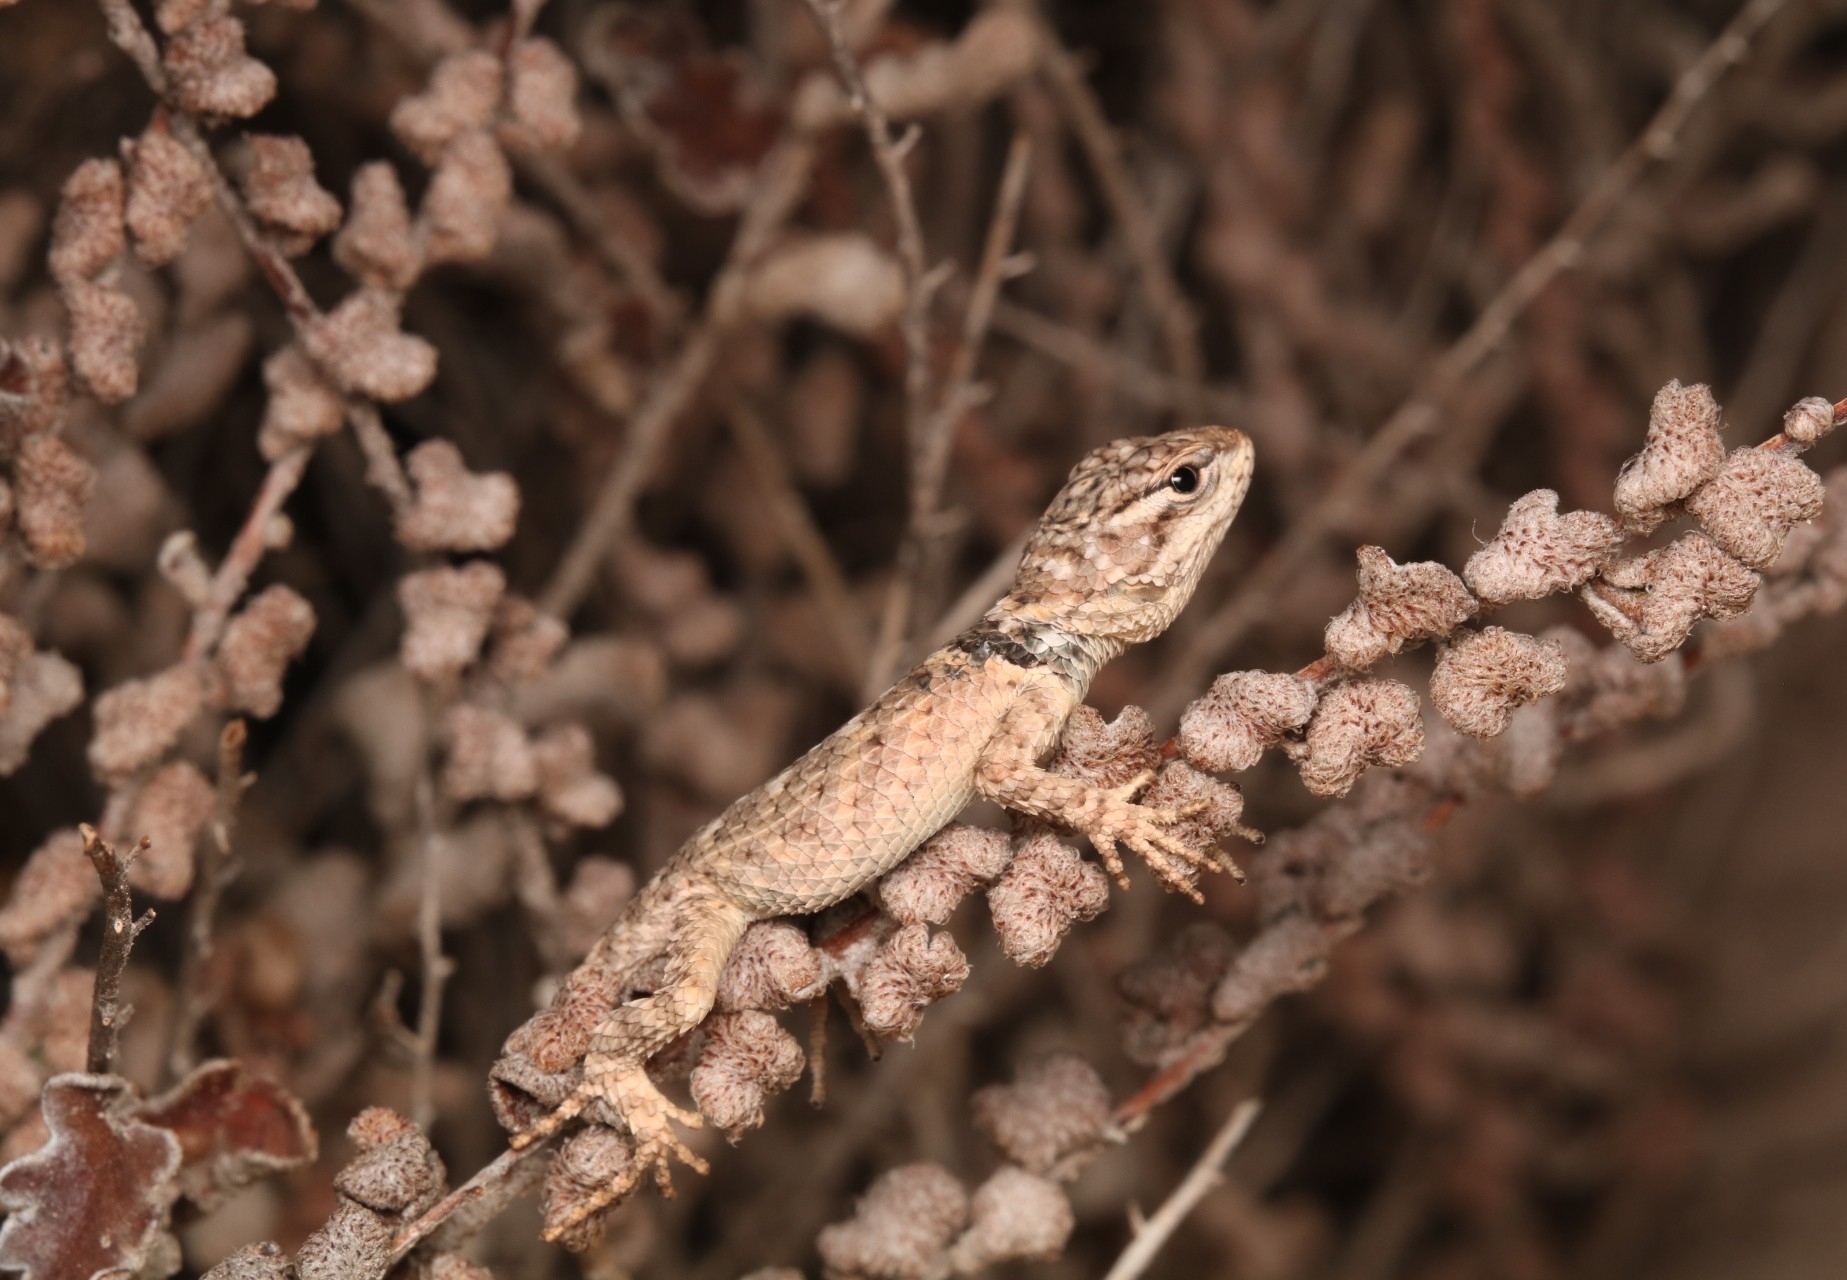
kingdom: Animalia
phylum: Chordata
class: Squamata
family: Phrynosomatidae
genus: Sceloporus
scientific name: Sceloporus poinsettii
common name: Crevice spiny lizard
